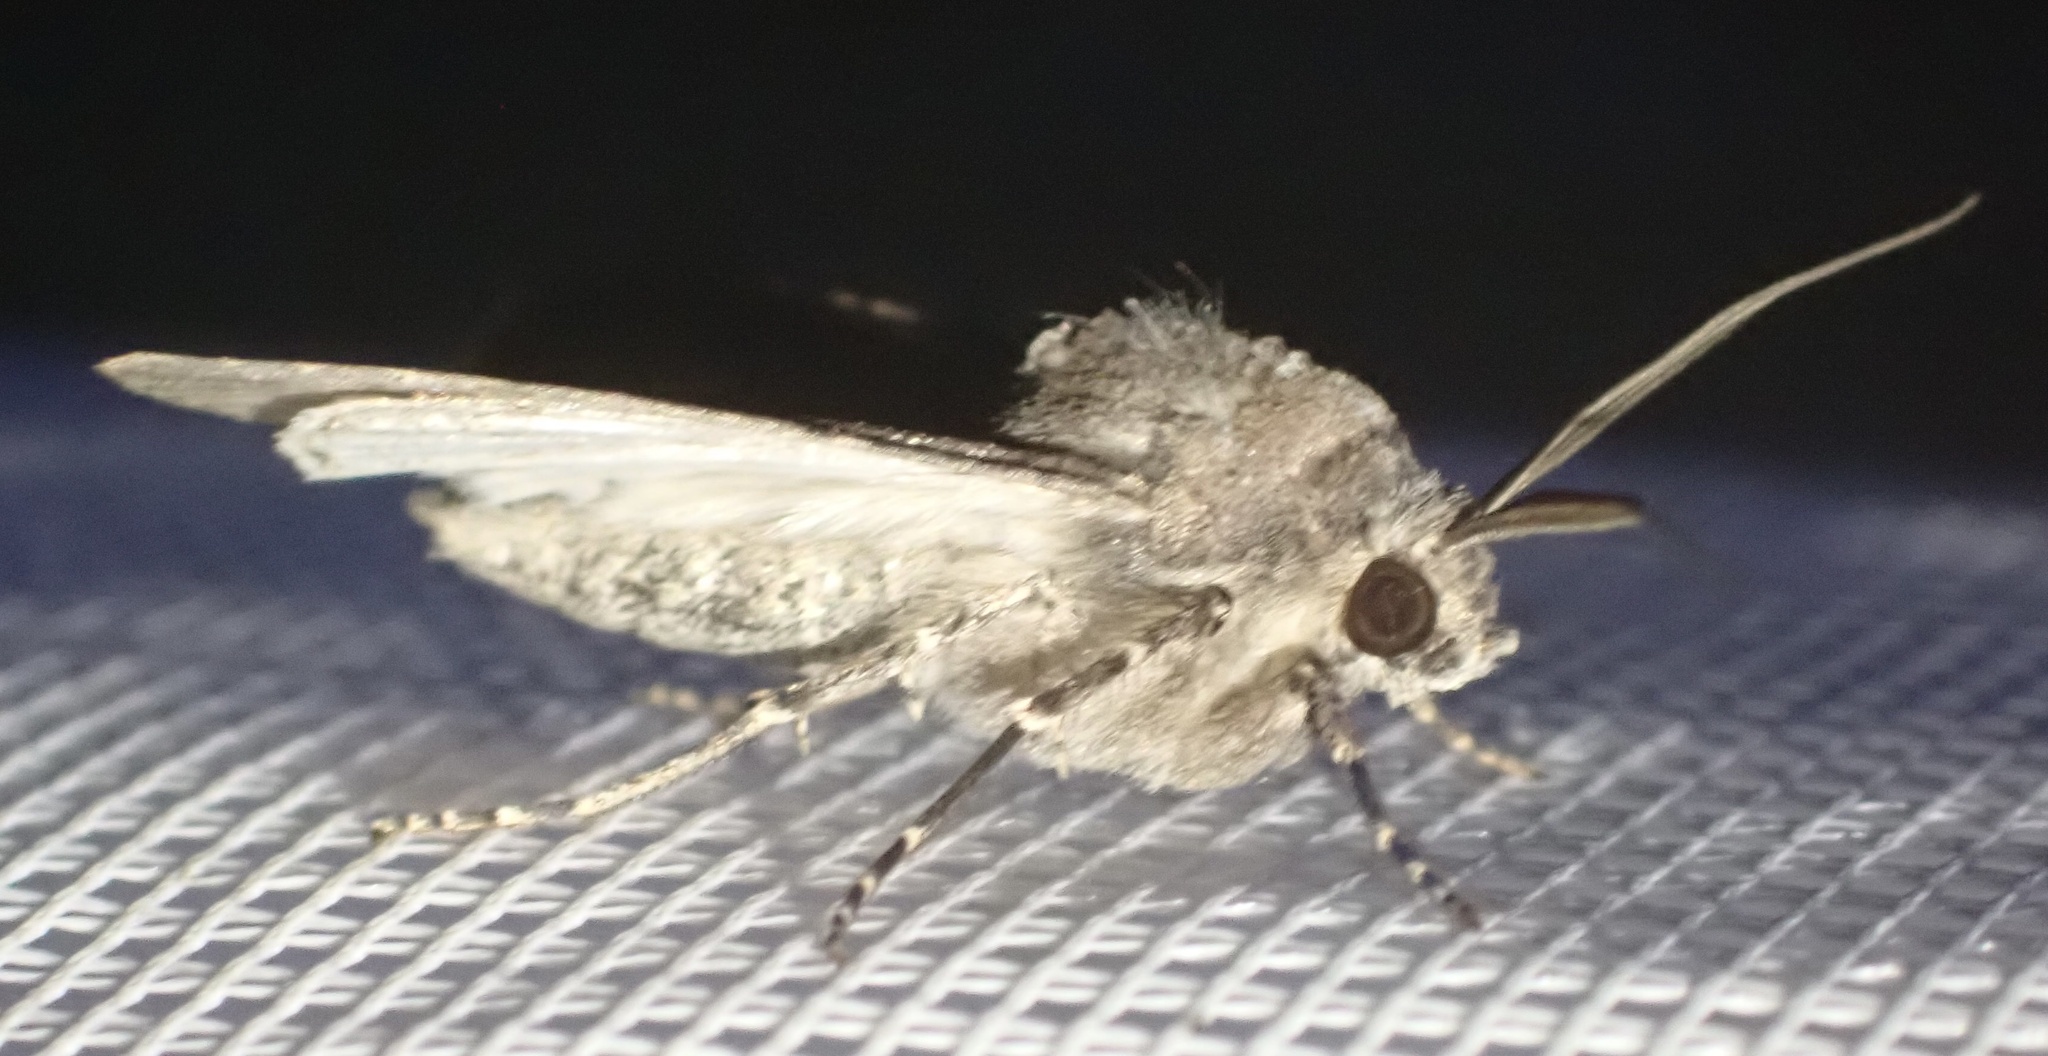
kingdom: Animalia
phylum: Arthropoda
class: Insecta
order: Lepidoptera
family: Noctuidae
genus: Agrotis
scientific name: Agrotis segetum
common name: Turnip moth
